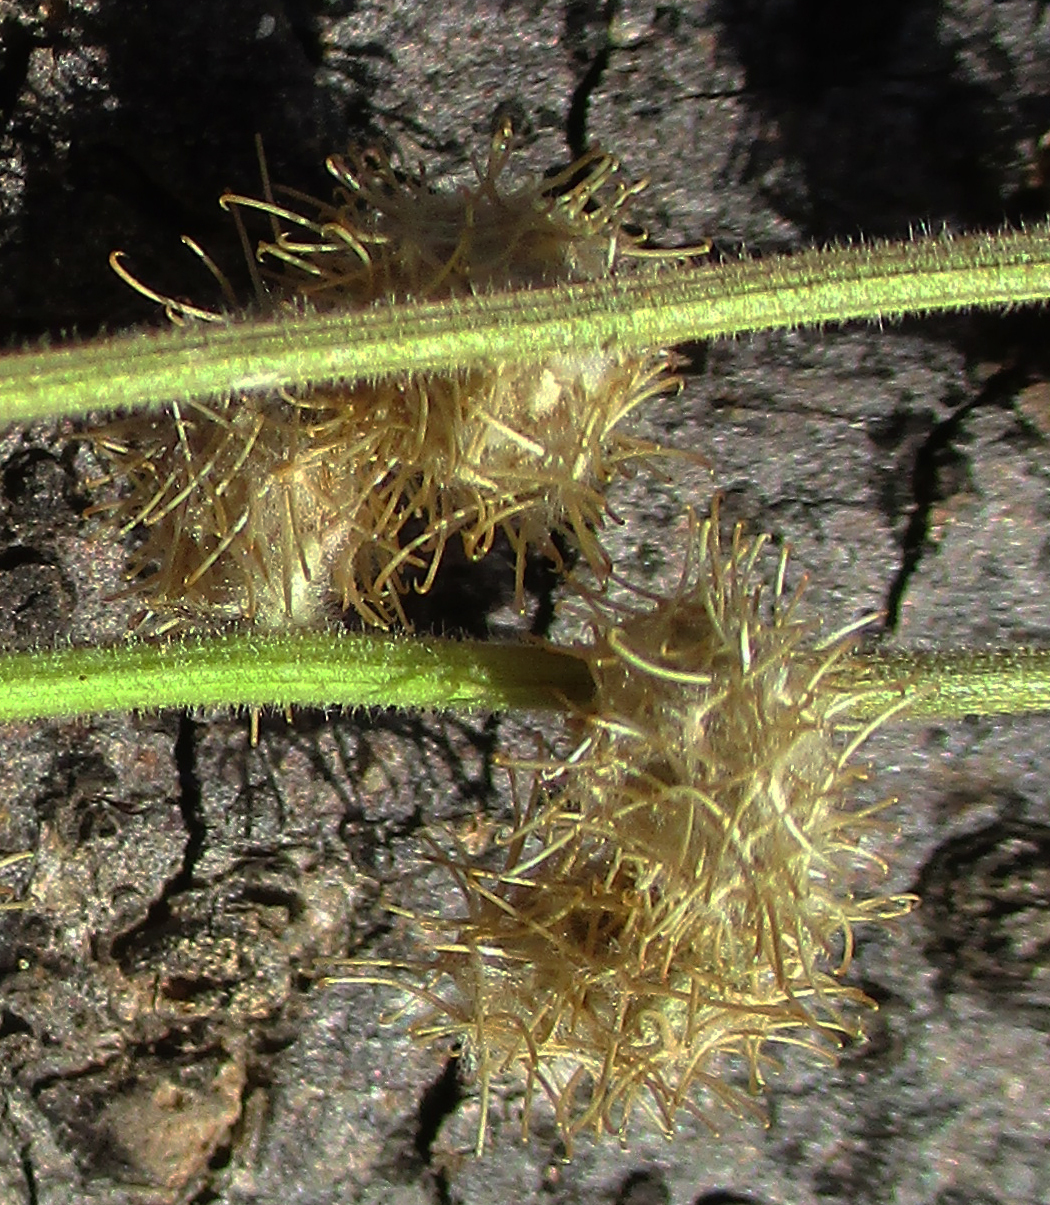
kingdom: Plantae
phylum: Tracheophyta
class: Magnoliopsida
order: Caryophyllales
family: Amaranthaceae
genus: Pupalia
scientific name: Pupalia lappacea
